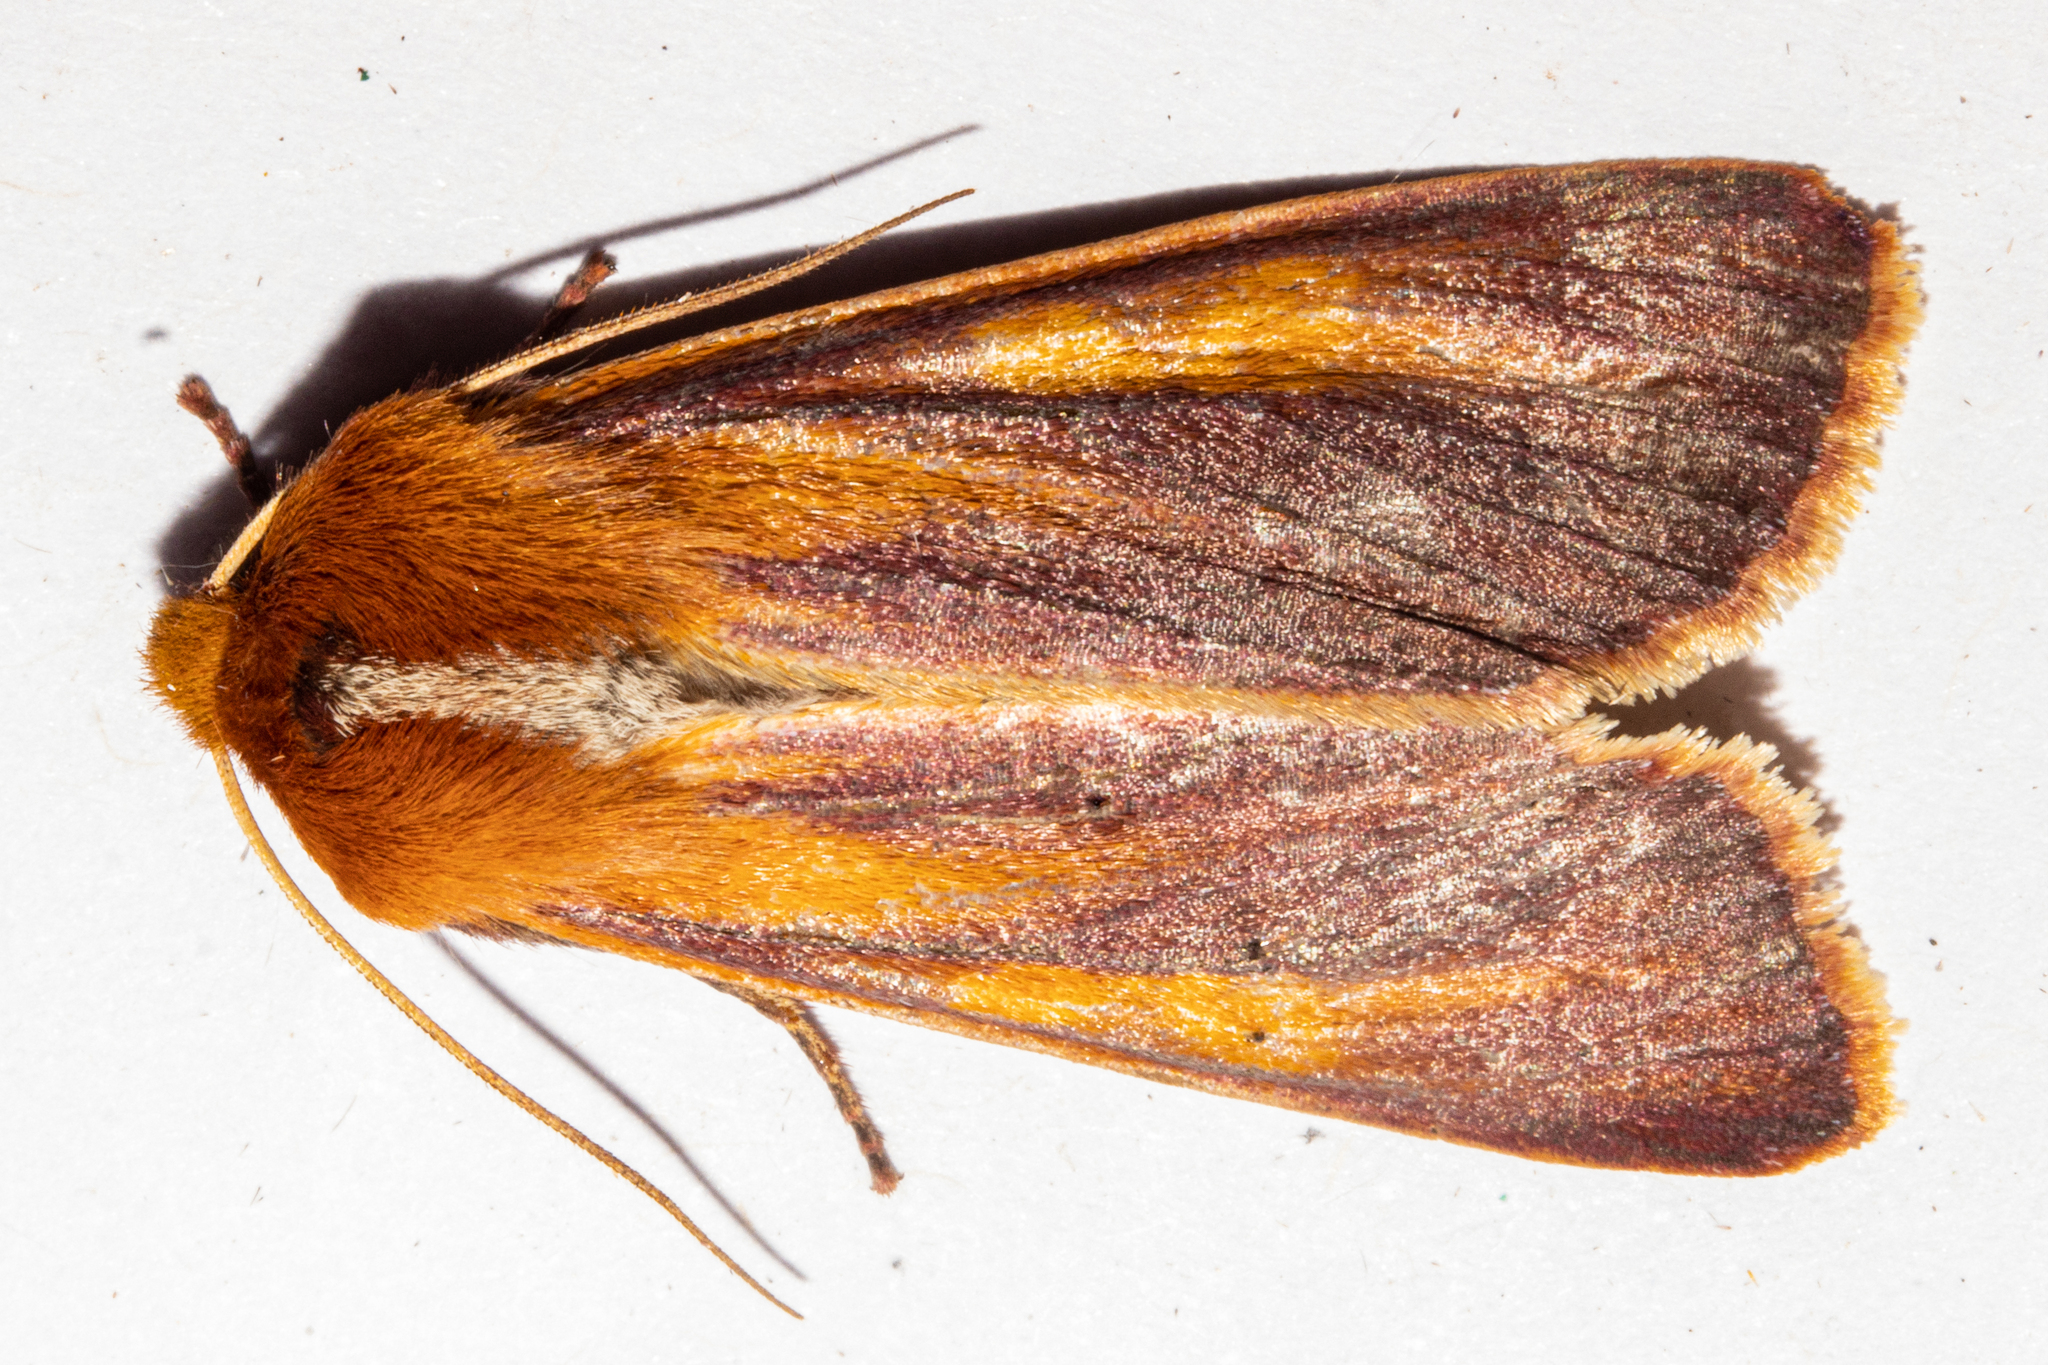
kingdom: Animalia
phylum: Arthropoda
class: Insecta
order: Lepidoptera
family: Noctuidae
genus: Ichneutica
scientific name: Ichneutica
